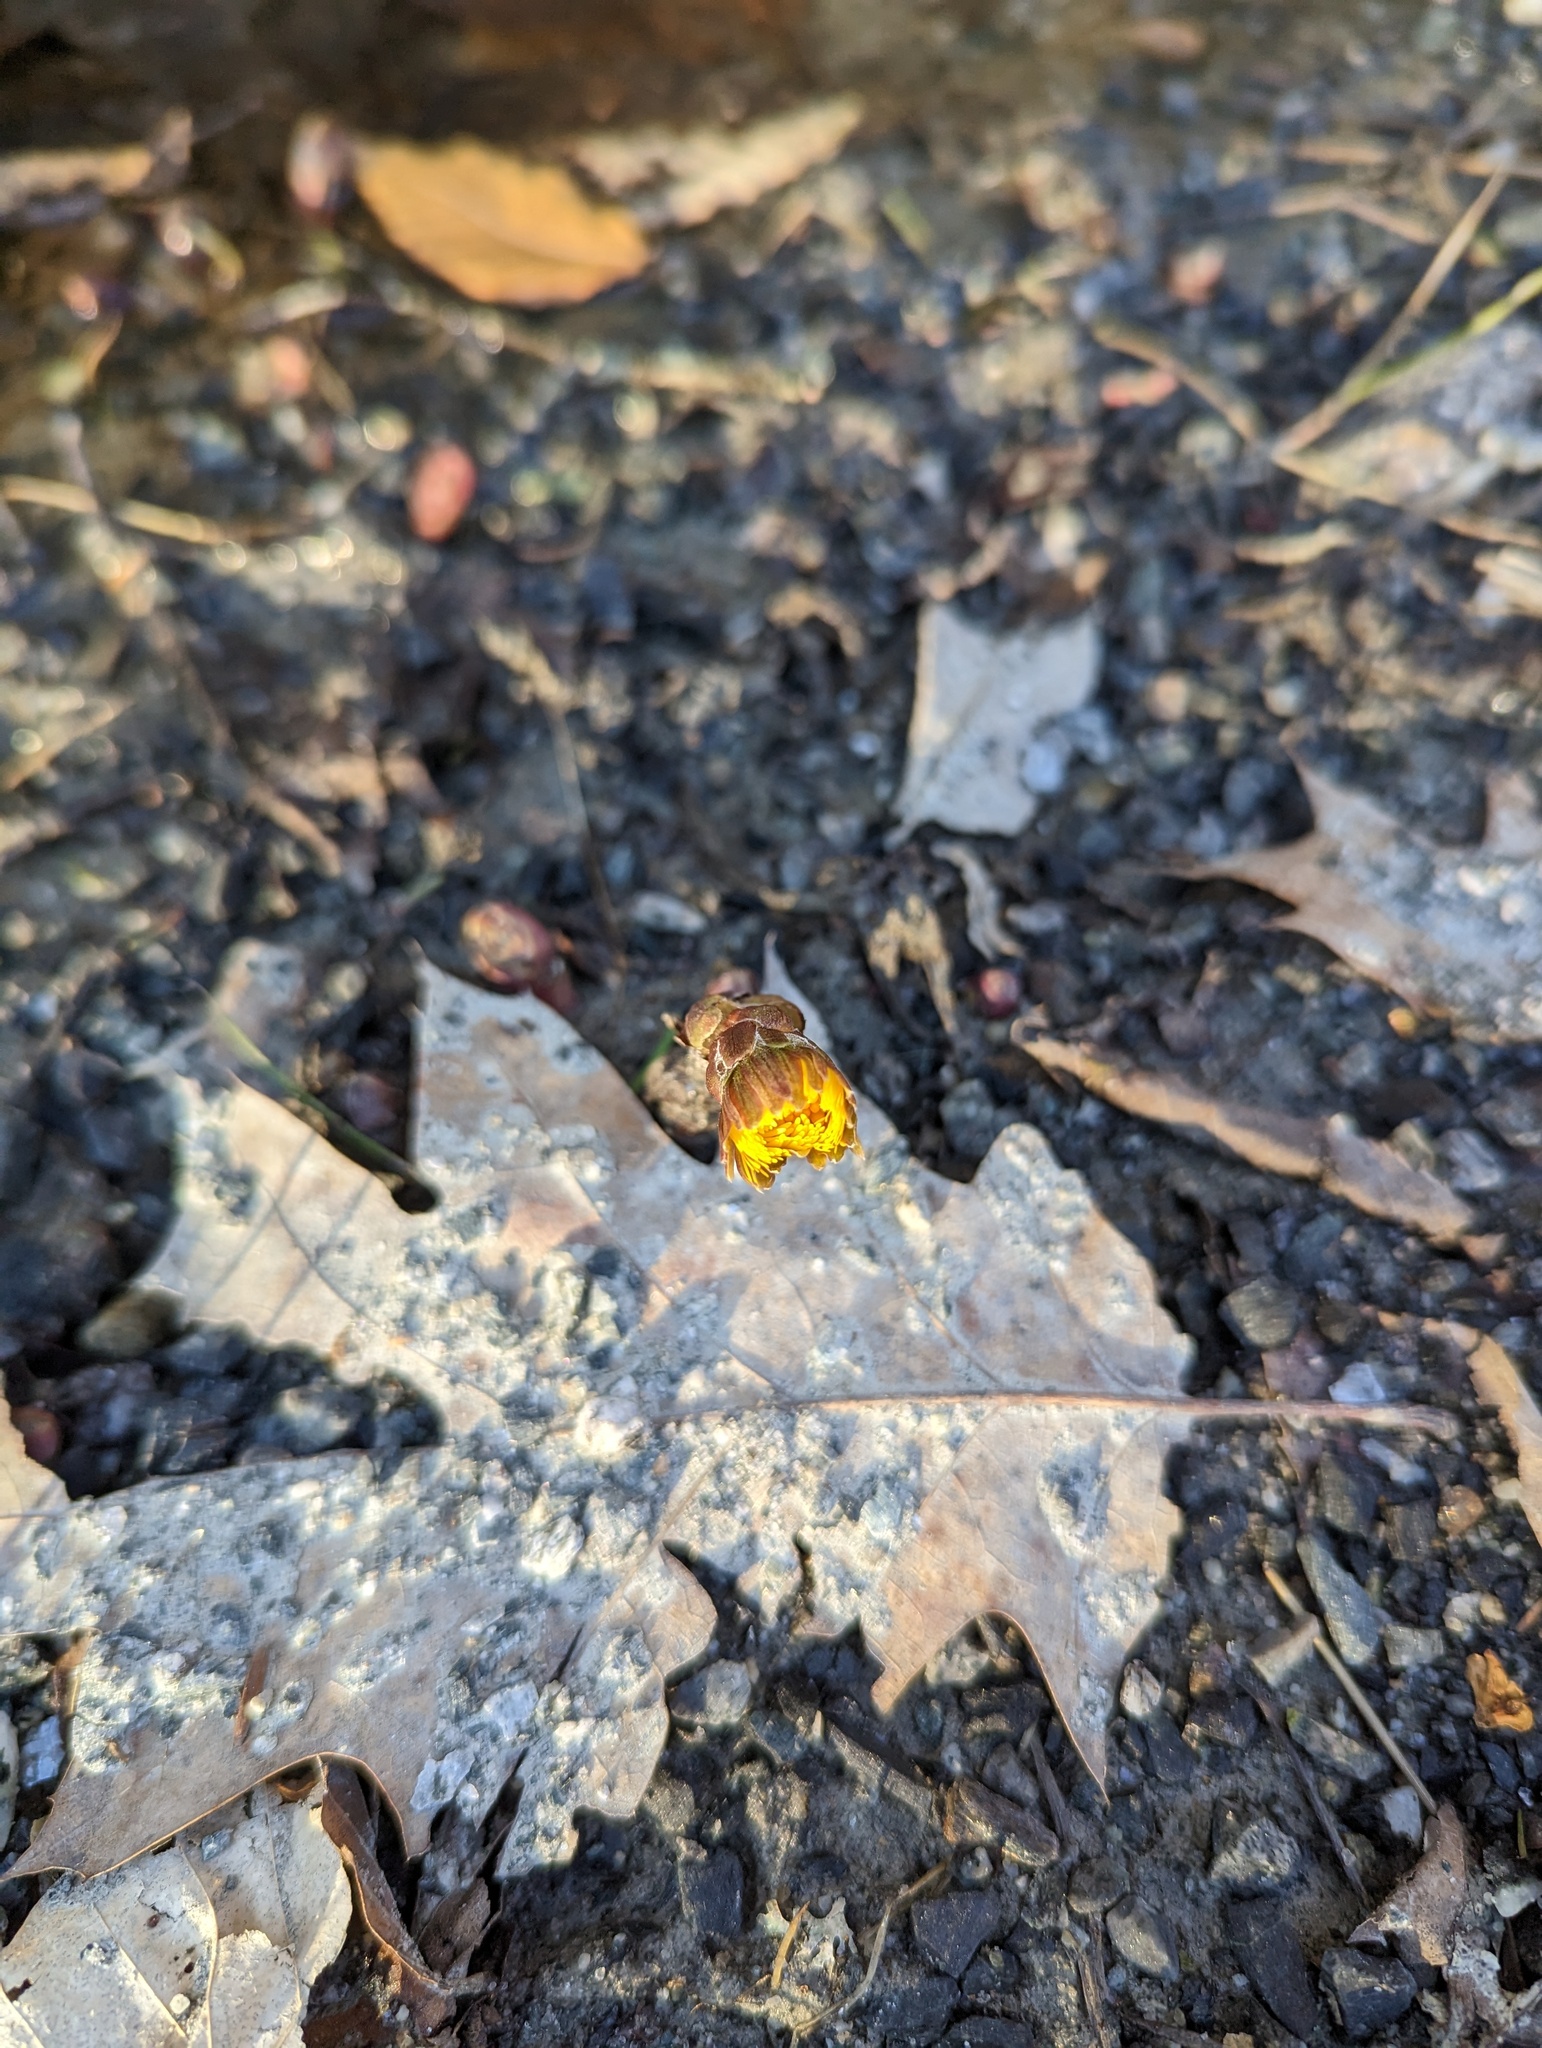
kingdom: Plantae
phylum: Tracheophyta
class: Magnoliopsida
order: Asterales
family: Asteraceae
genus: Tussilago
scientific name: Tussilago farfara
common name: Coltsfoot
